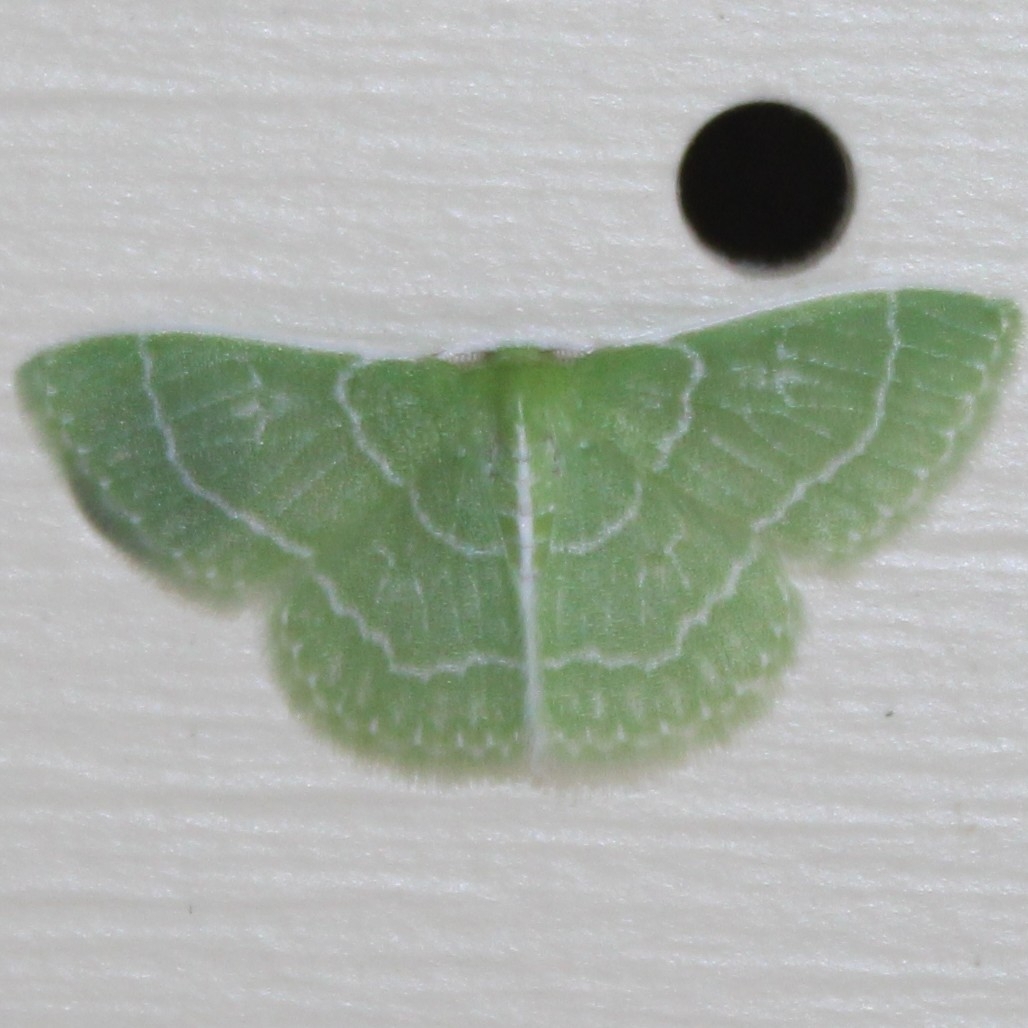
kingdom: Animalia
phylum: Arthropoda
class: Insecta
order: Lepidoptera
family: Geometridae
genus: Synchlora
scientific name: Synchlora aerata
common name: Wavy-lined emerald
